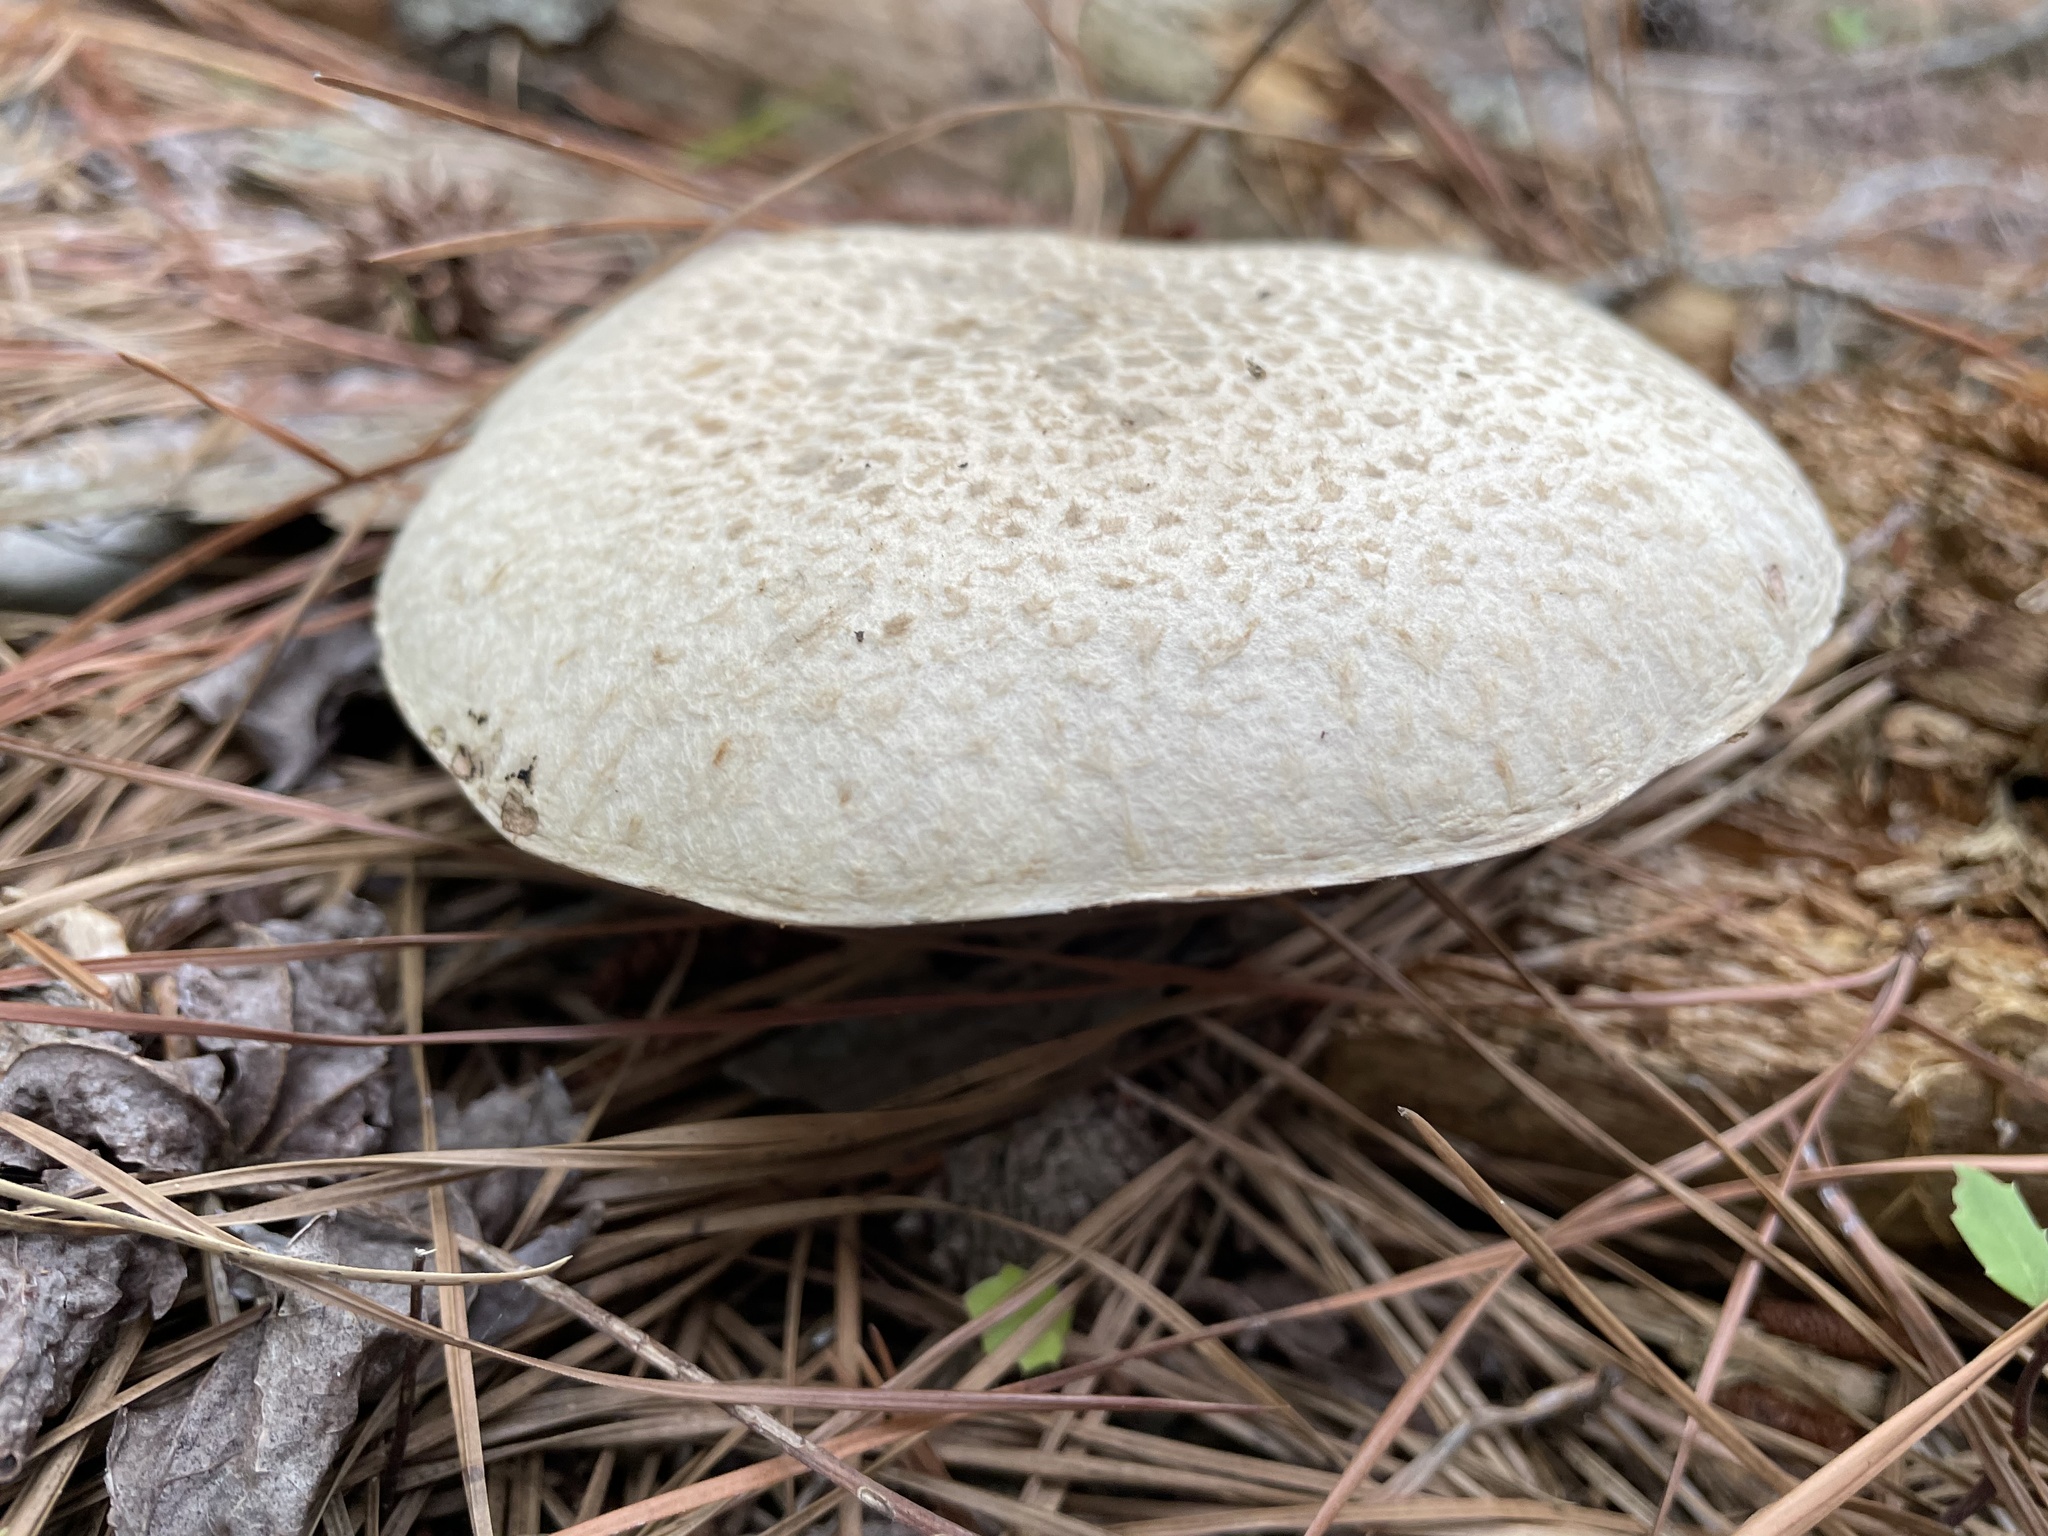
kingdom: Fungi
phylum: Basidiomycota
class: Agaricomycetes
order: Boletales
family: Suillaceae
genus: Suillus
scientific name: Suillus decipiens
